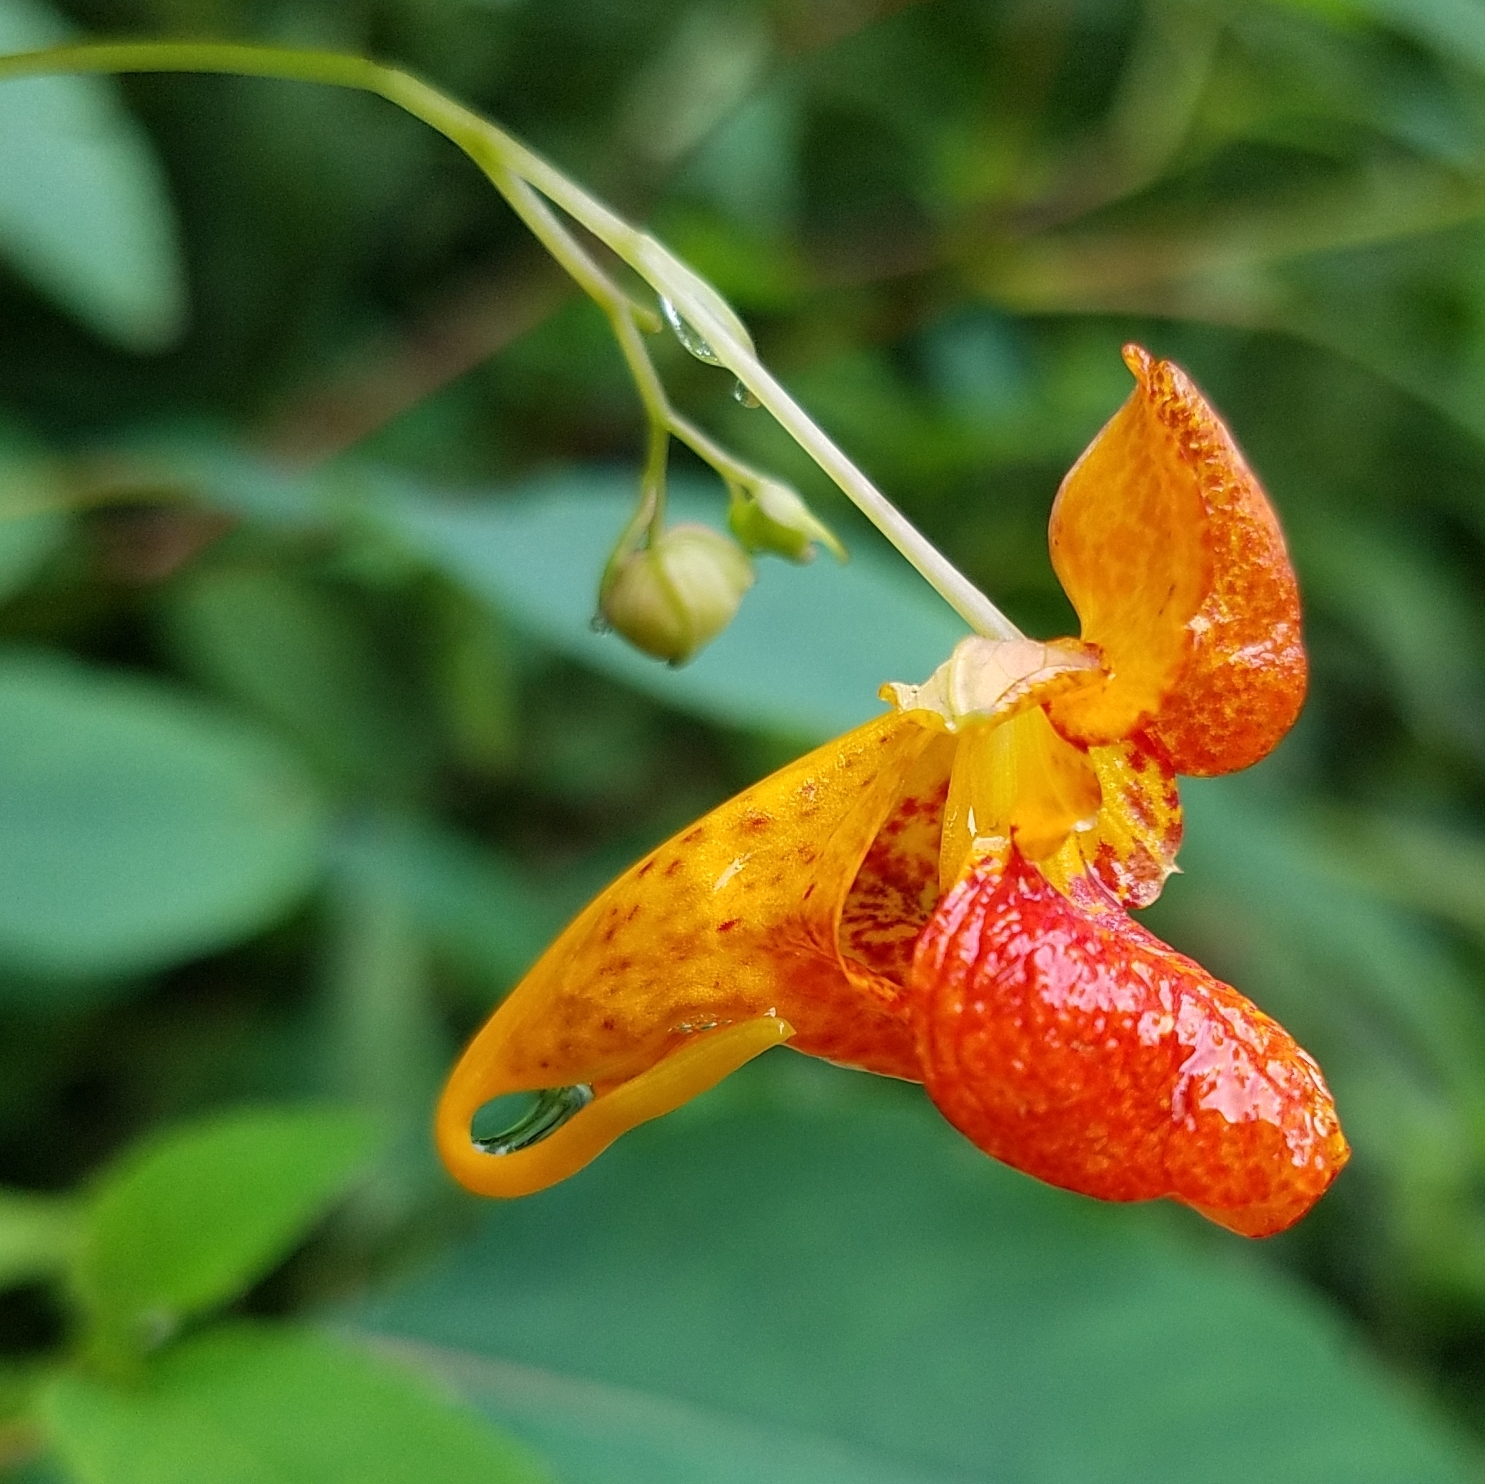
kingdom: Plantae
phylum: Tracheophyta
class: Magnoliopsida
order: Ericales
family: Balsaminaceae
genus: Impatiens
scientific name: Impatiens capensis
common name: Orange balsam
